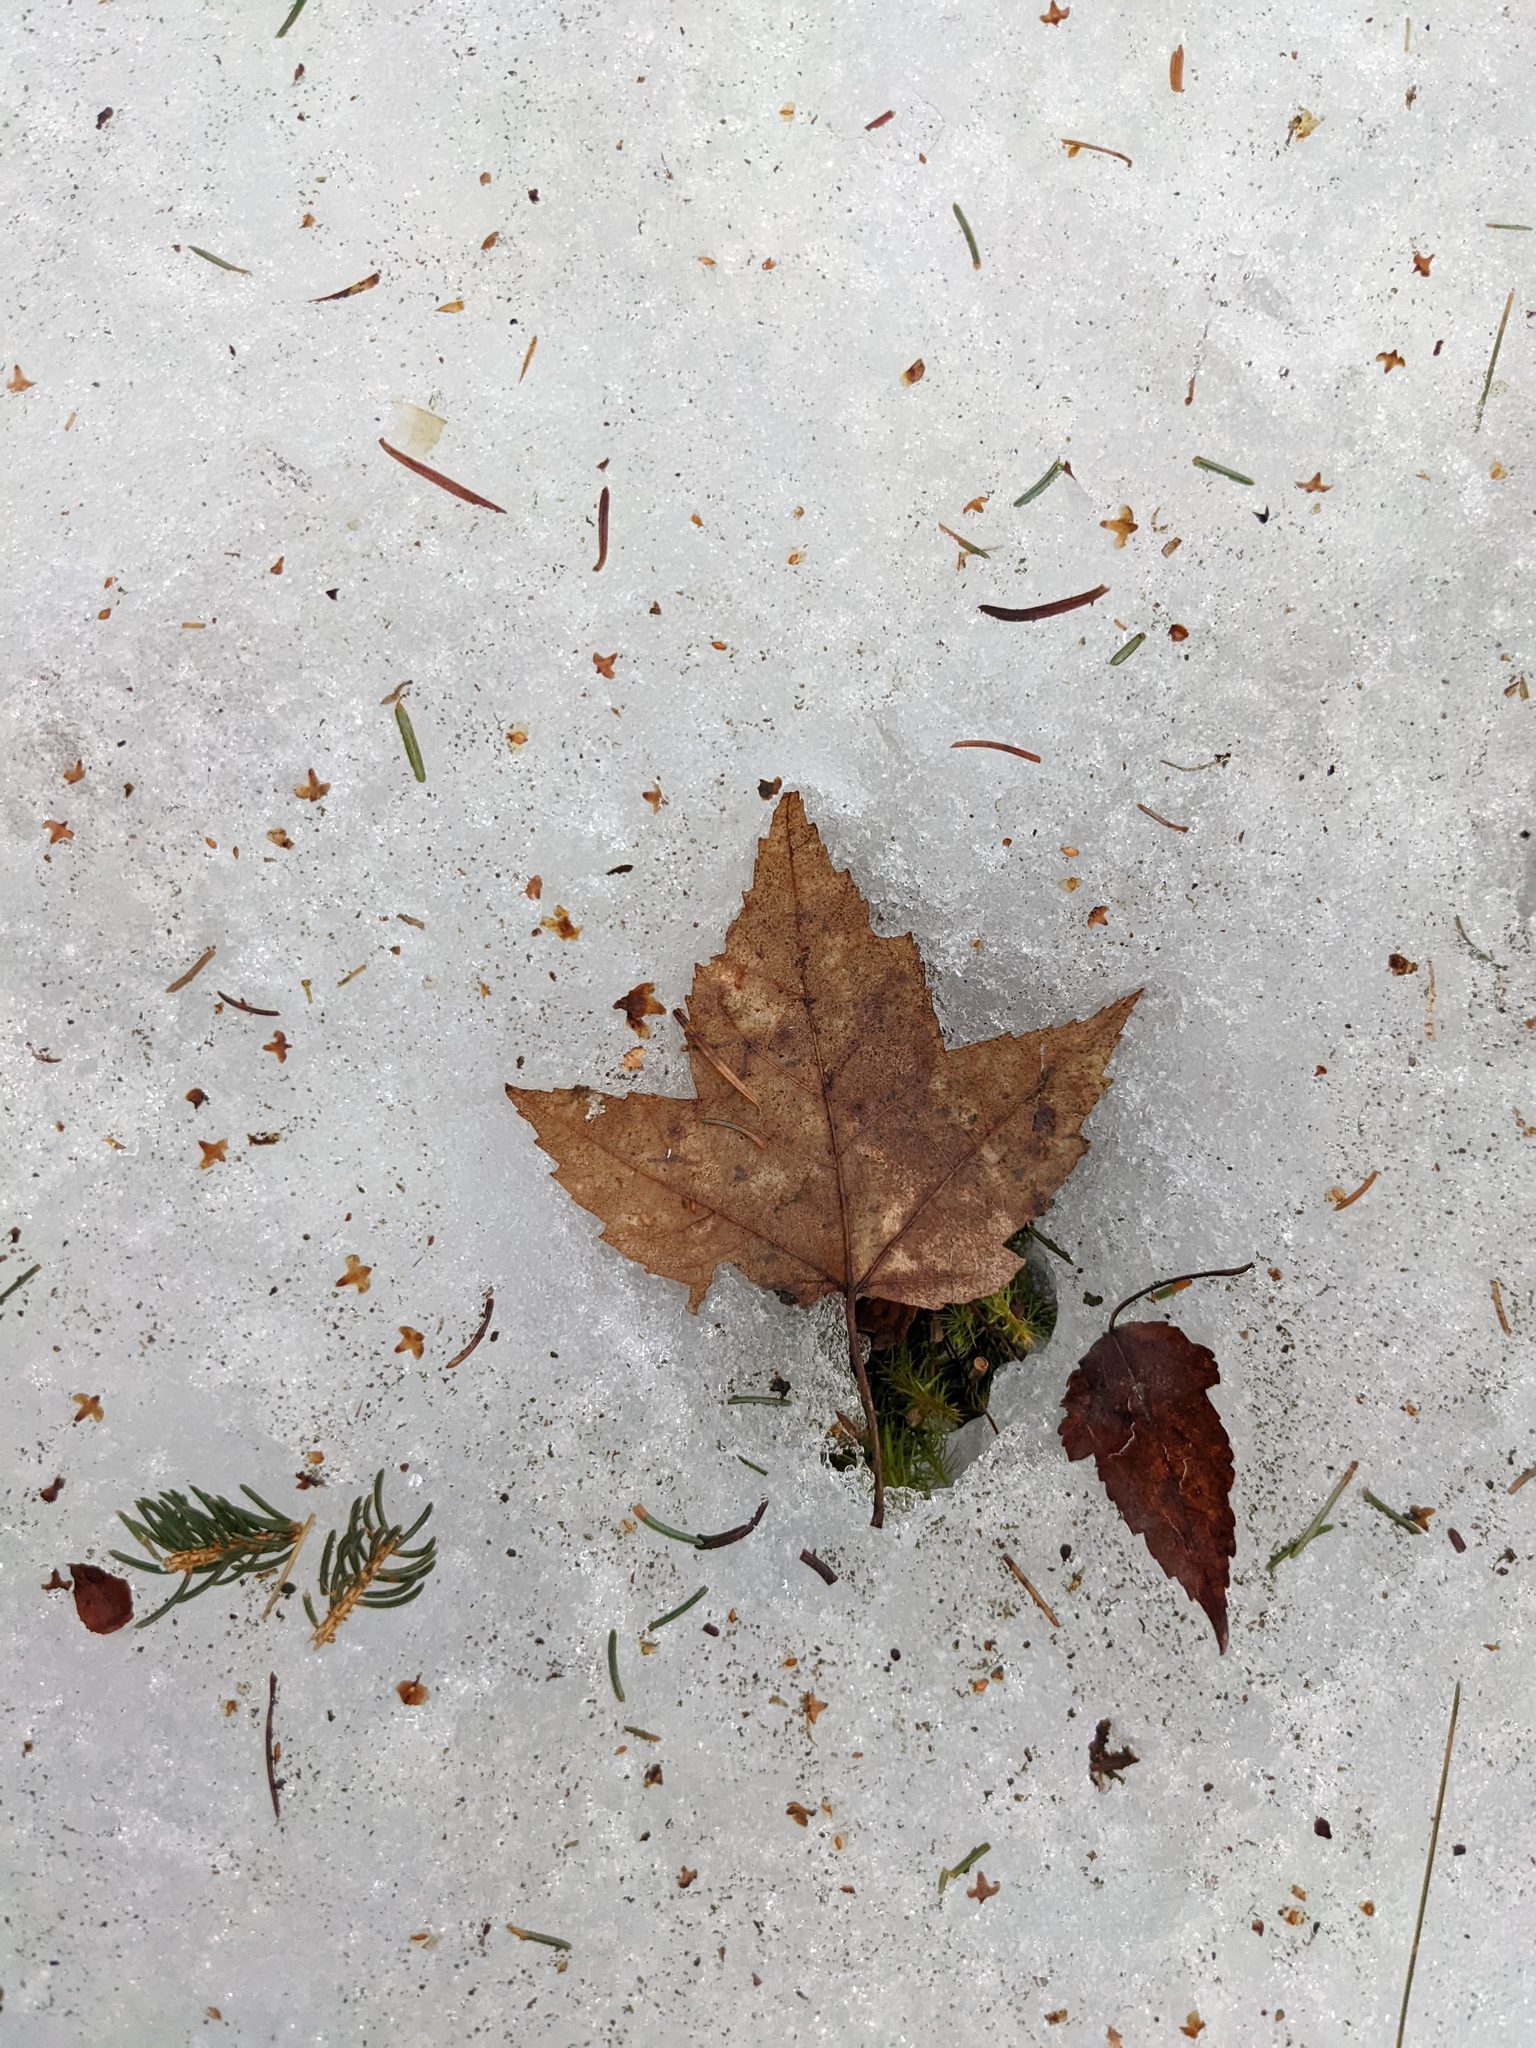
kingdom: Plantae
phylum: Tracheophyta
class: Magnoliopsida
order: Sapindales
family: Sapindaceae
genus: Acer
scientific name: Acer rubrum
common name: Red maple
